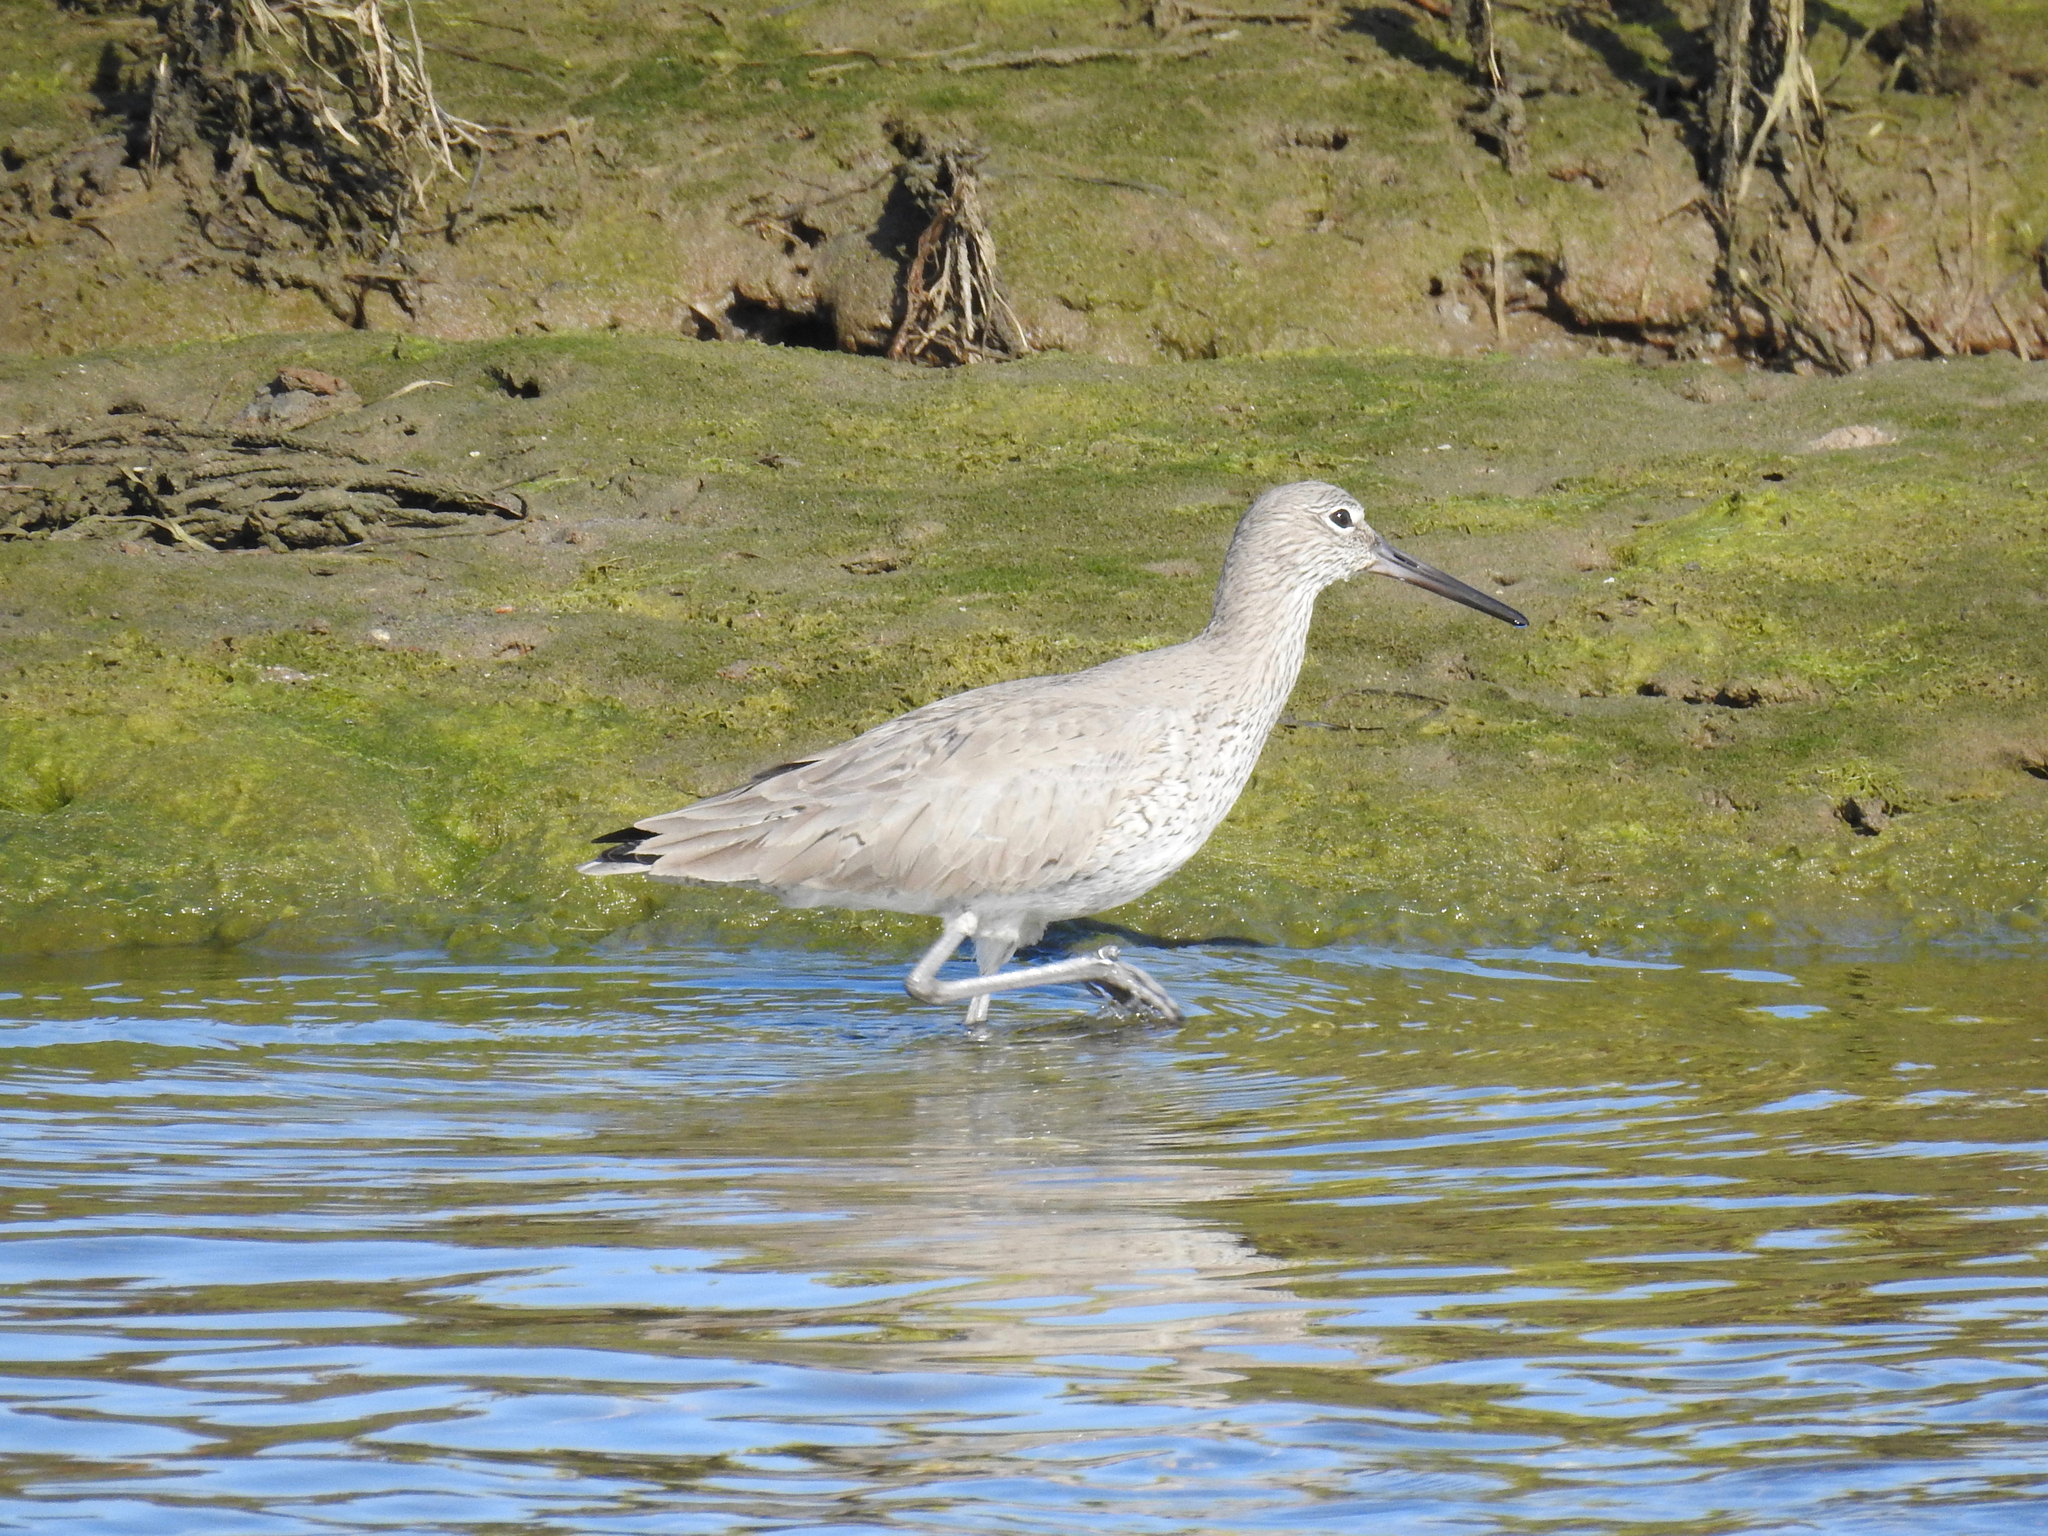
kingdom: Animalia
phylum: Chordata
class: Aves
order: Charadriiformes
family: Scolopacidae
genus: Tringa
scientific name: Tringa semipalmata
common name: Willet
